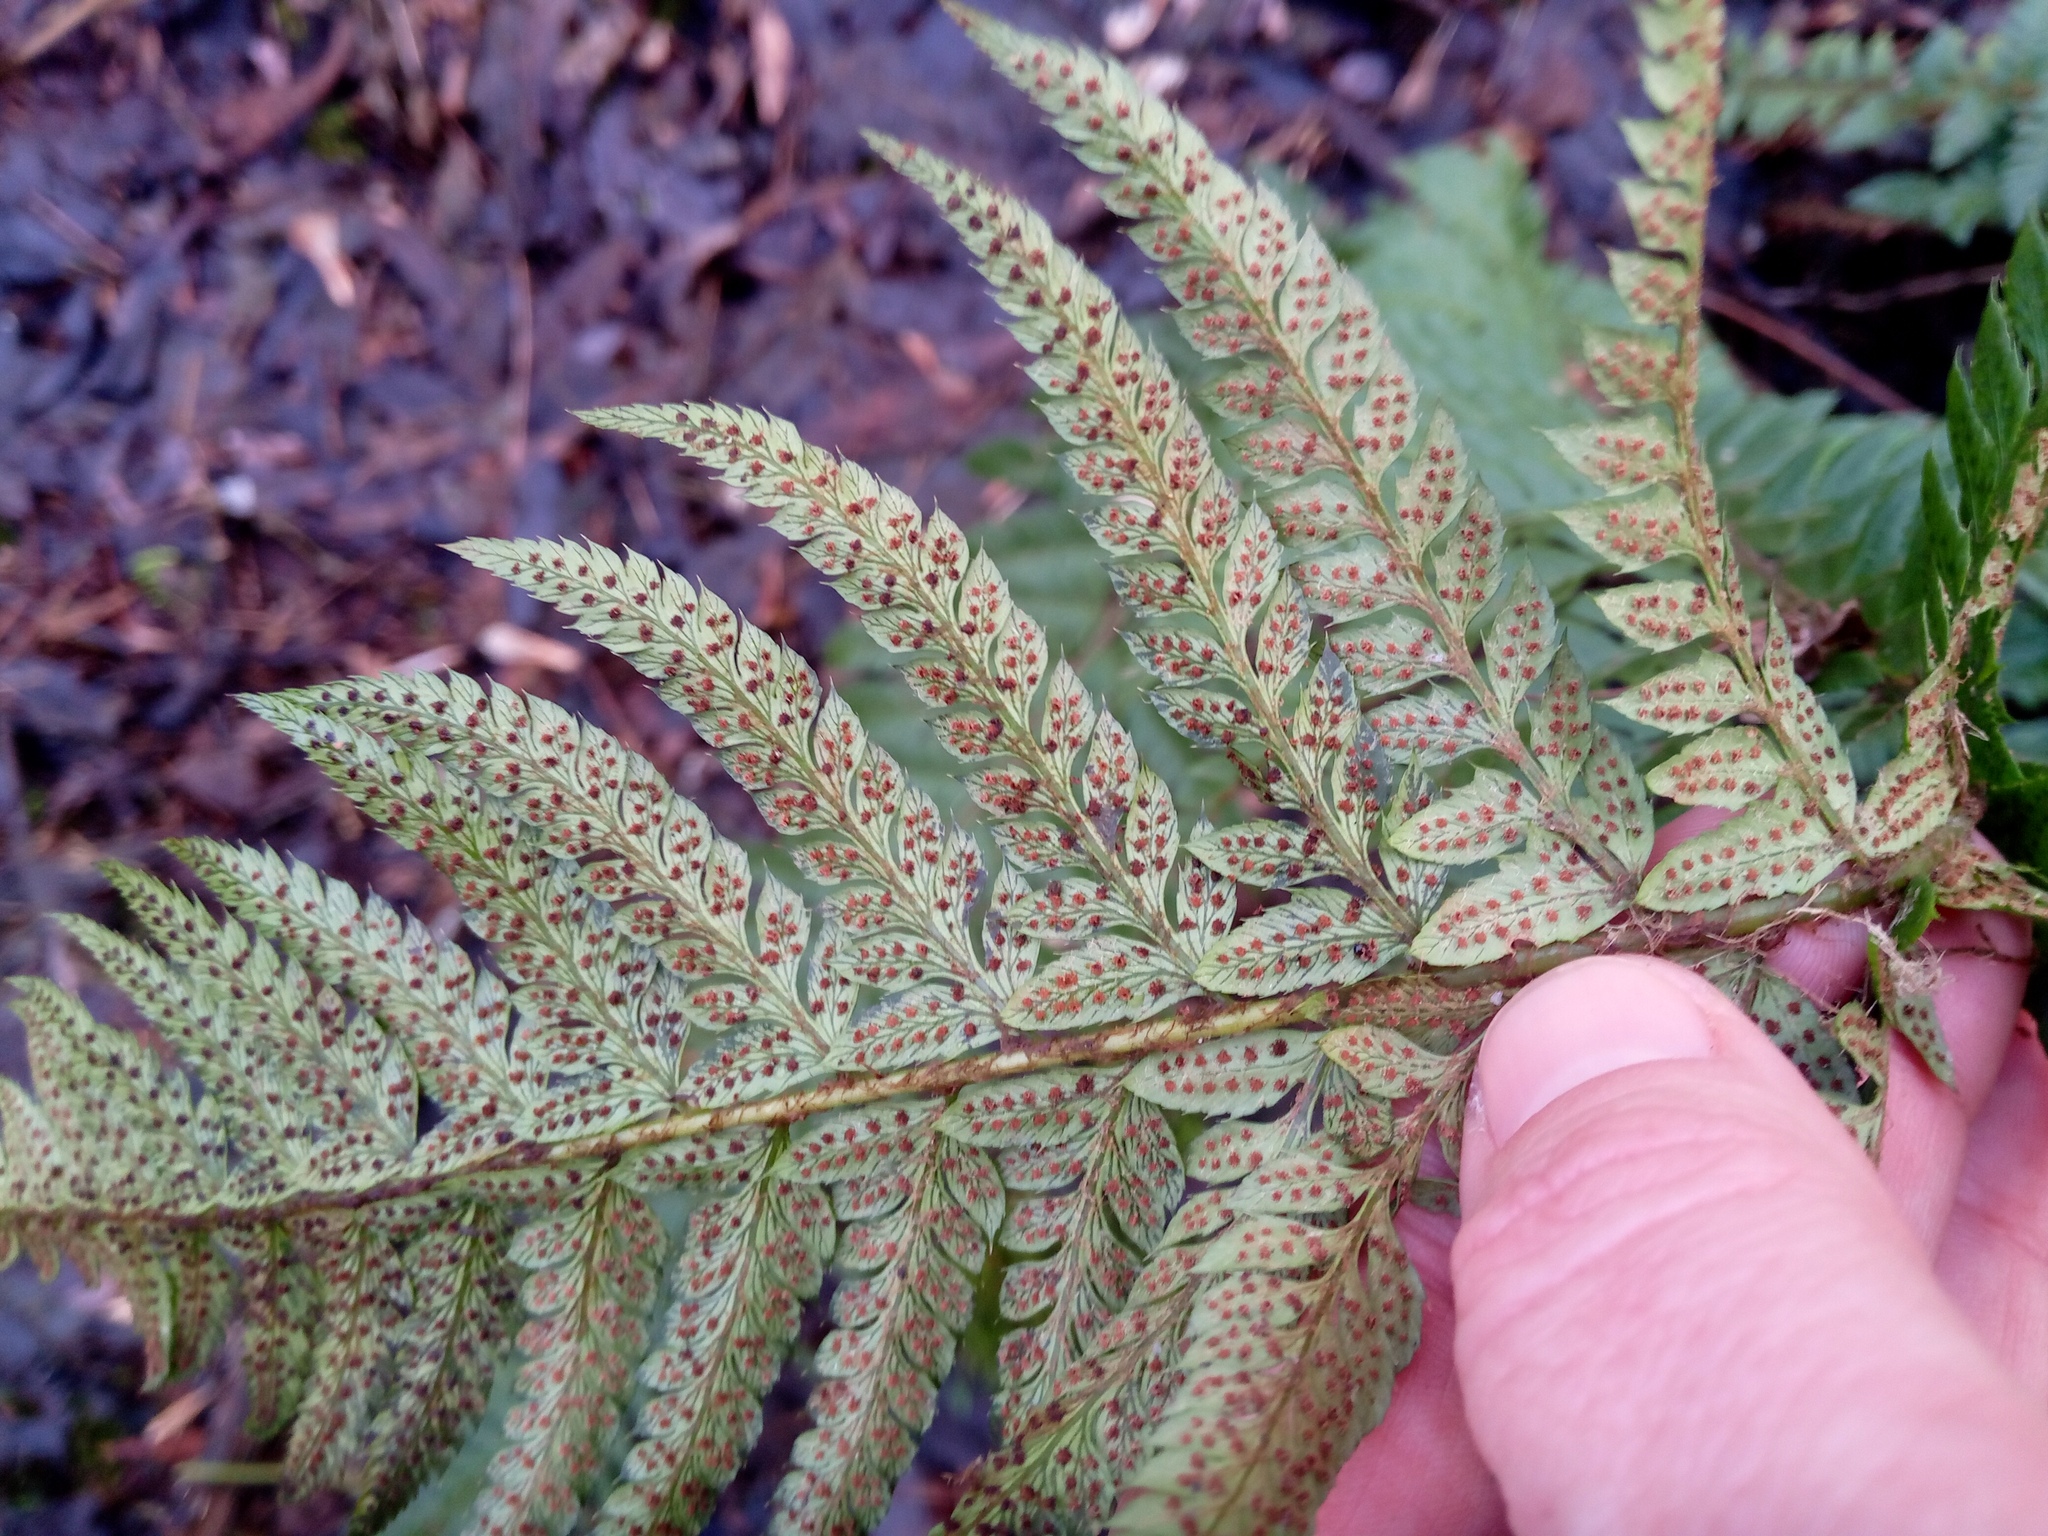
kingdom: Plantae
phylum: Tracheophyta
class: Polypodiopsida
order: Polypodiales
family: Dryopteridaceae
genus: Polystichum
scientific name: Polystichum aculeatum
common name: Hard shield-fern
